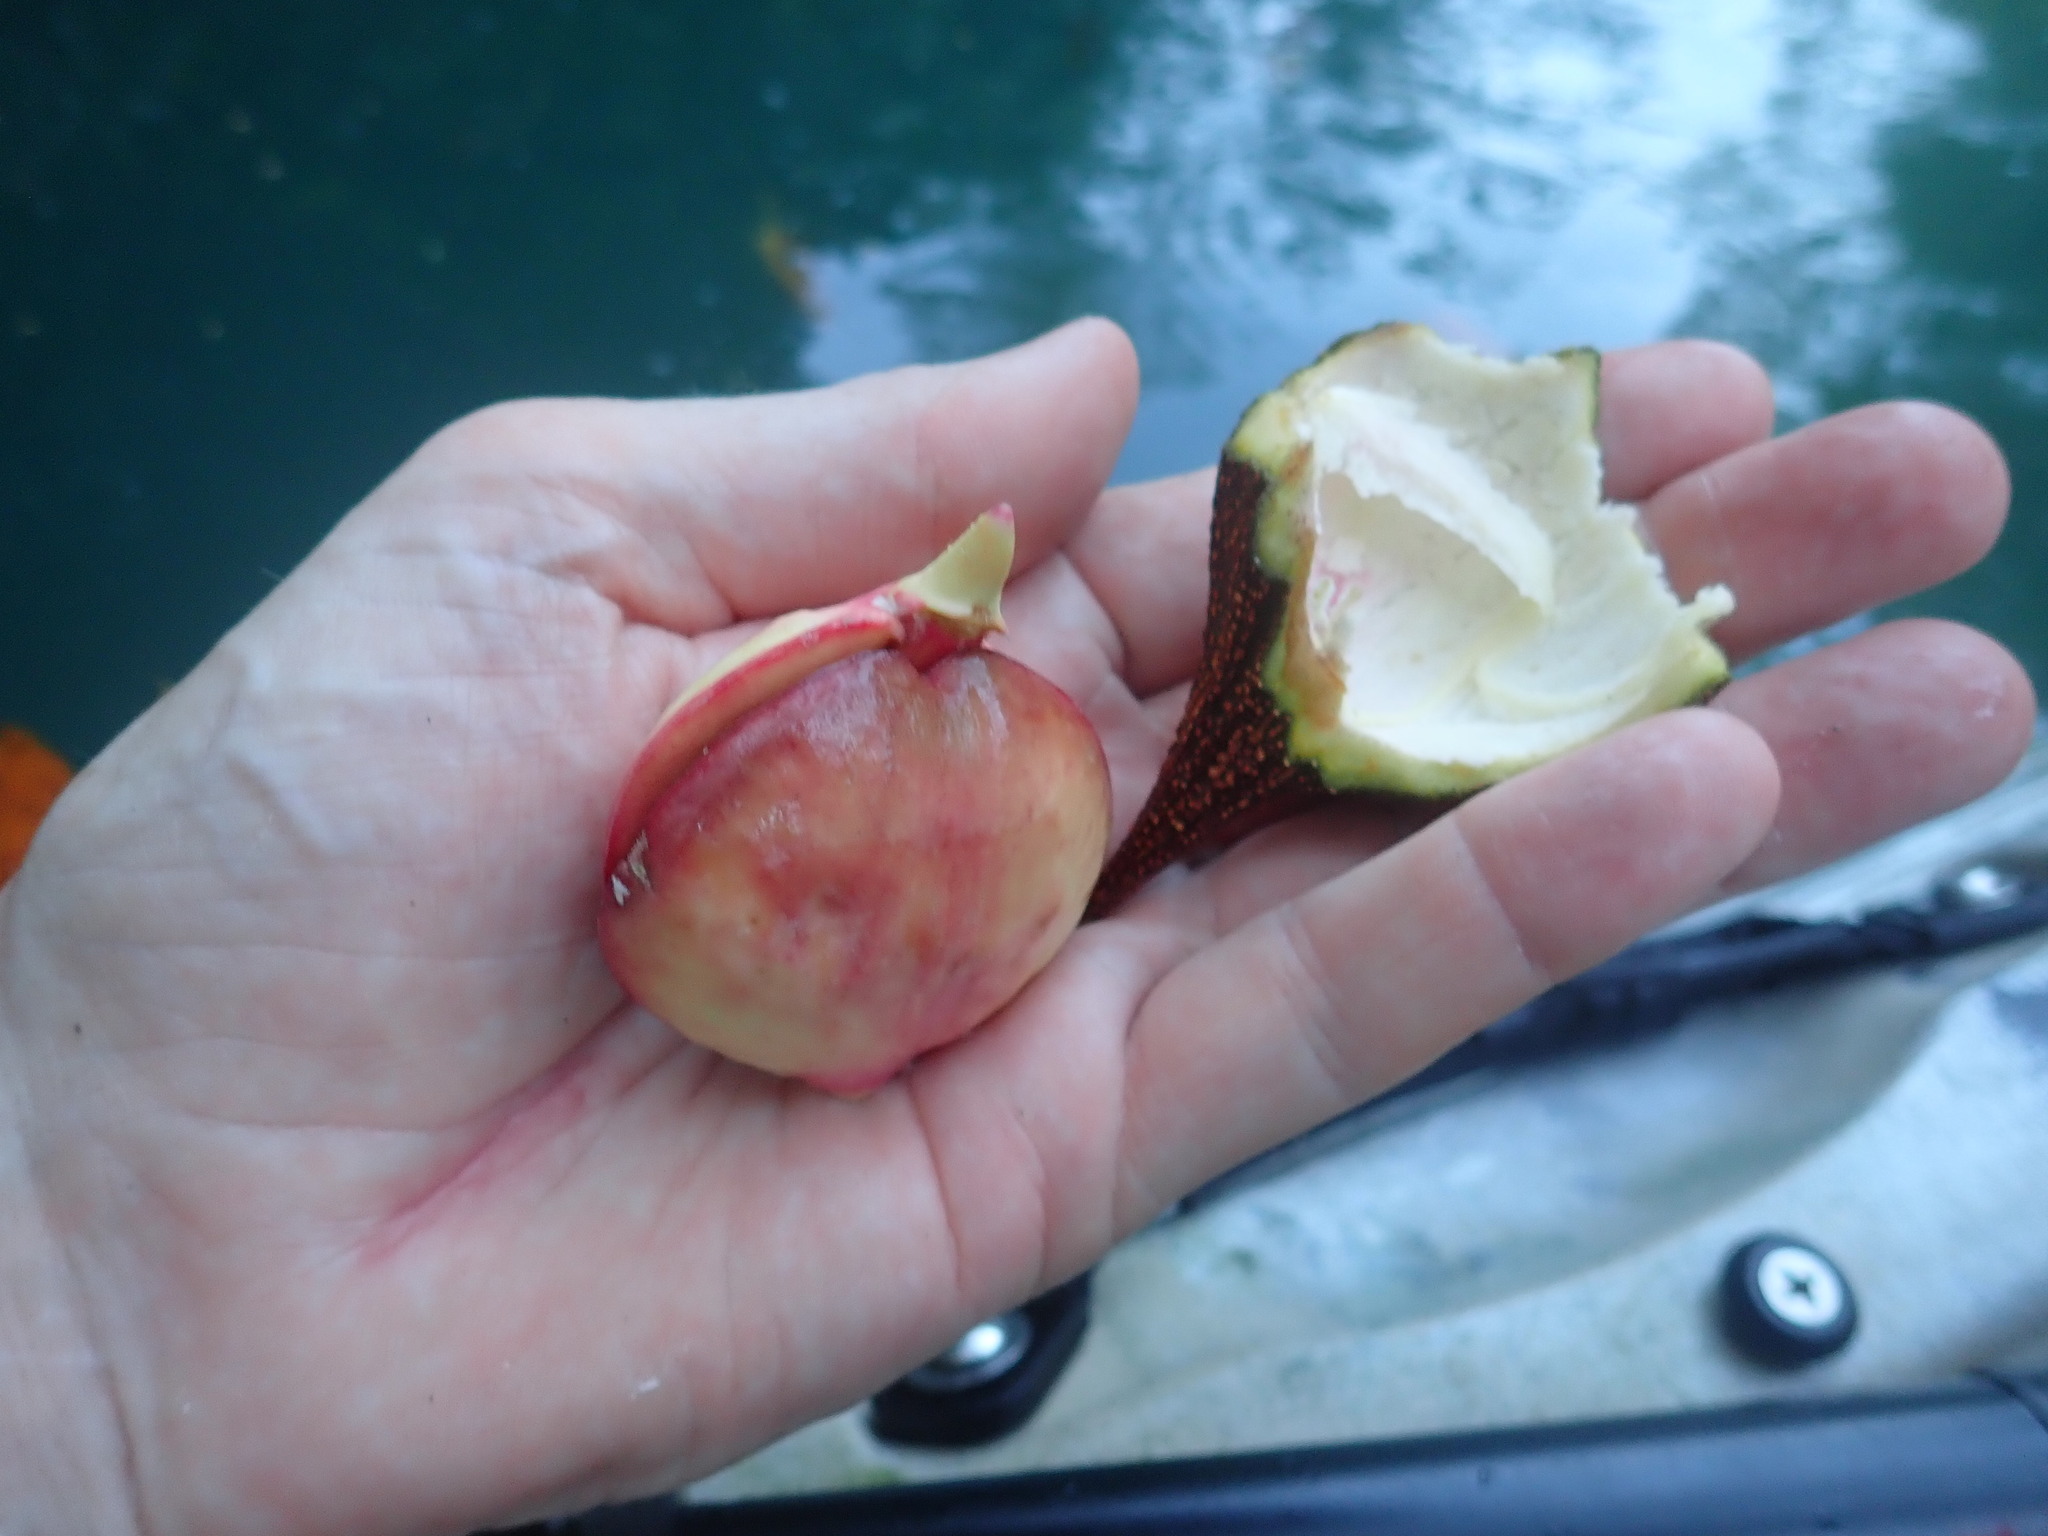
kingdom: Plantae
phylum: Tracheophyta
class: Magnoliopsida
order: Ericales
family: Tetrameristaceae
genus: Pelliciera
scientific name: Pelliciera rhizophorae
